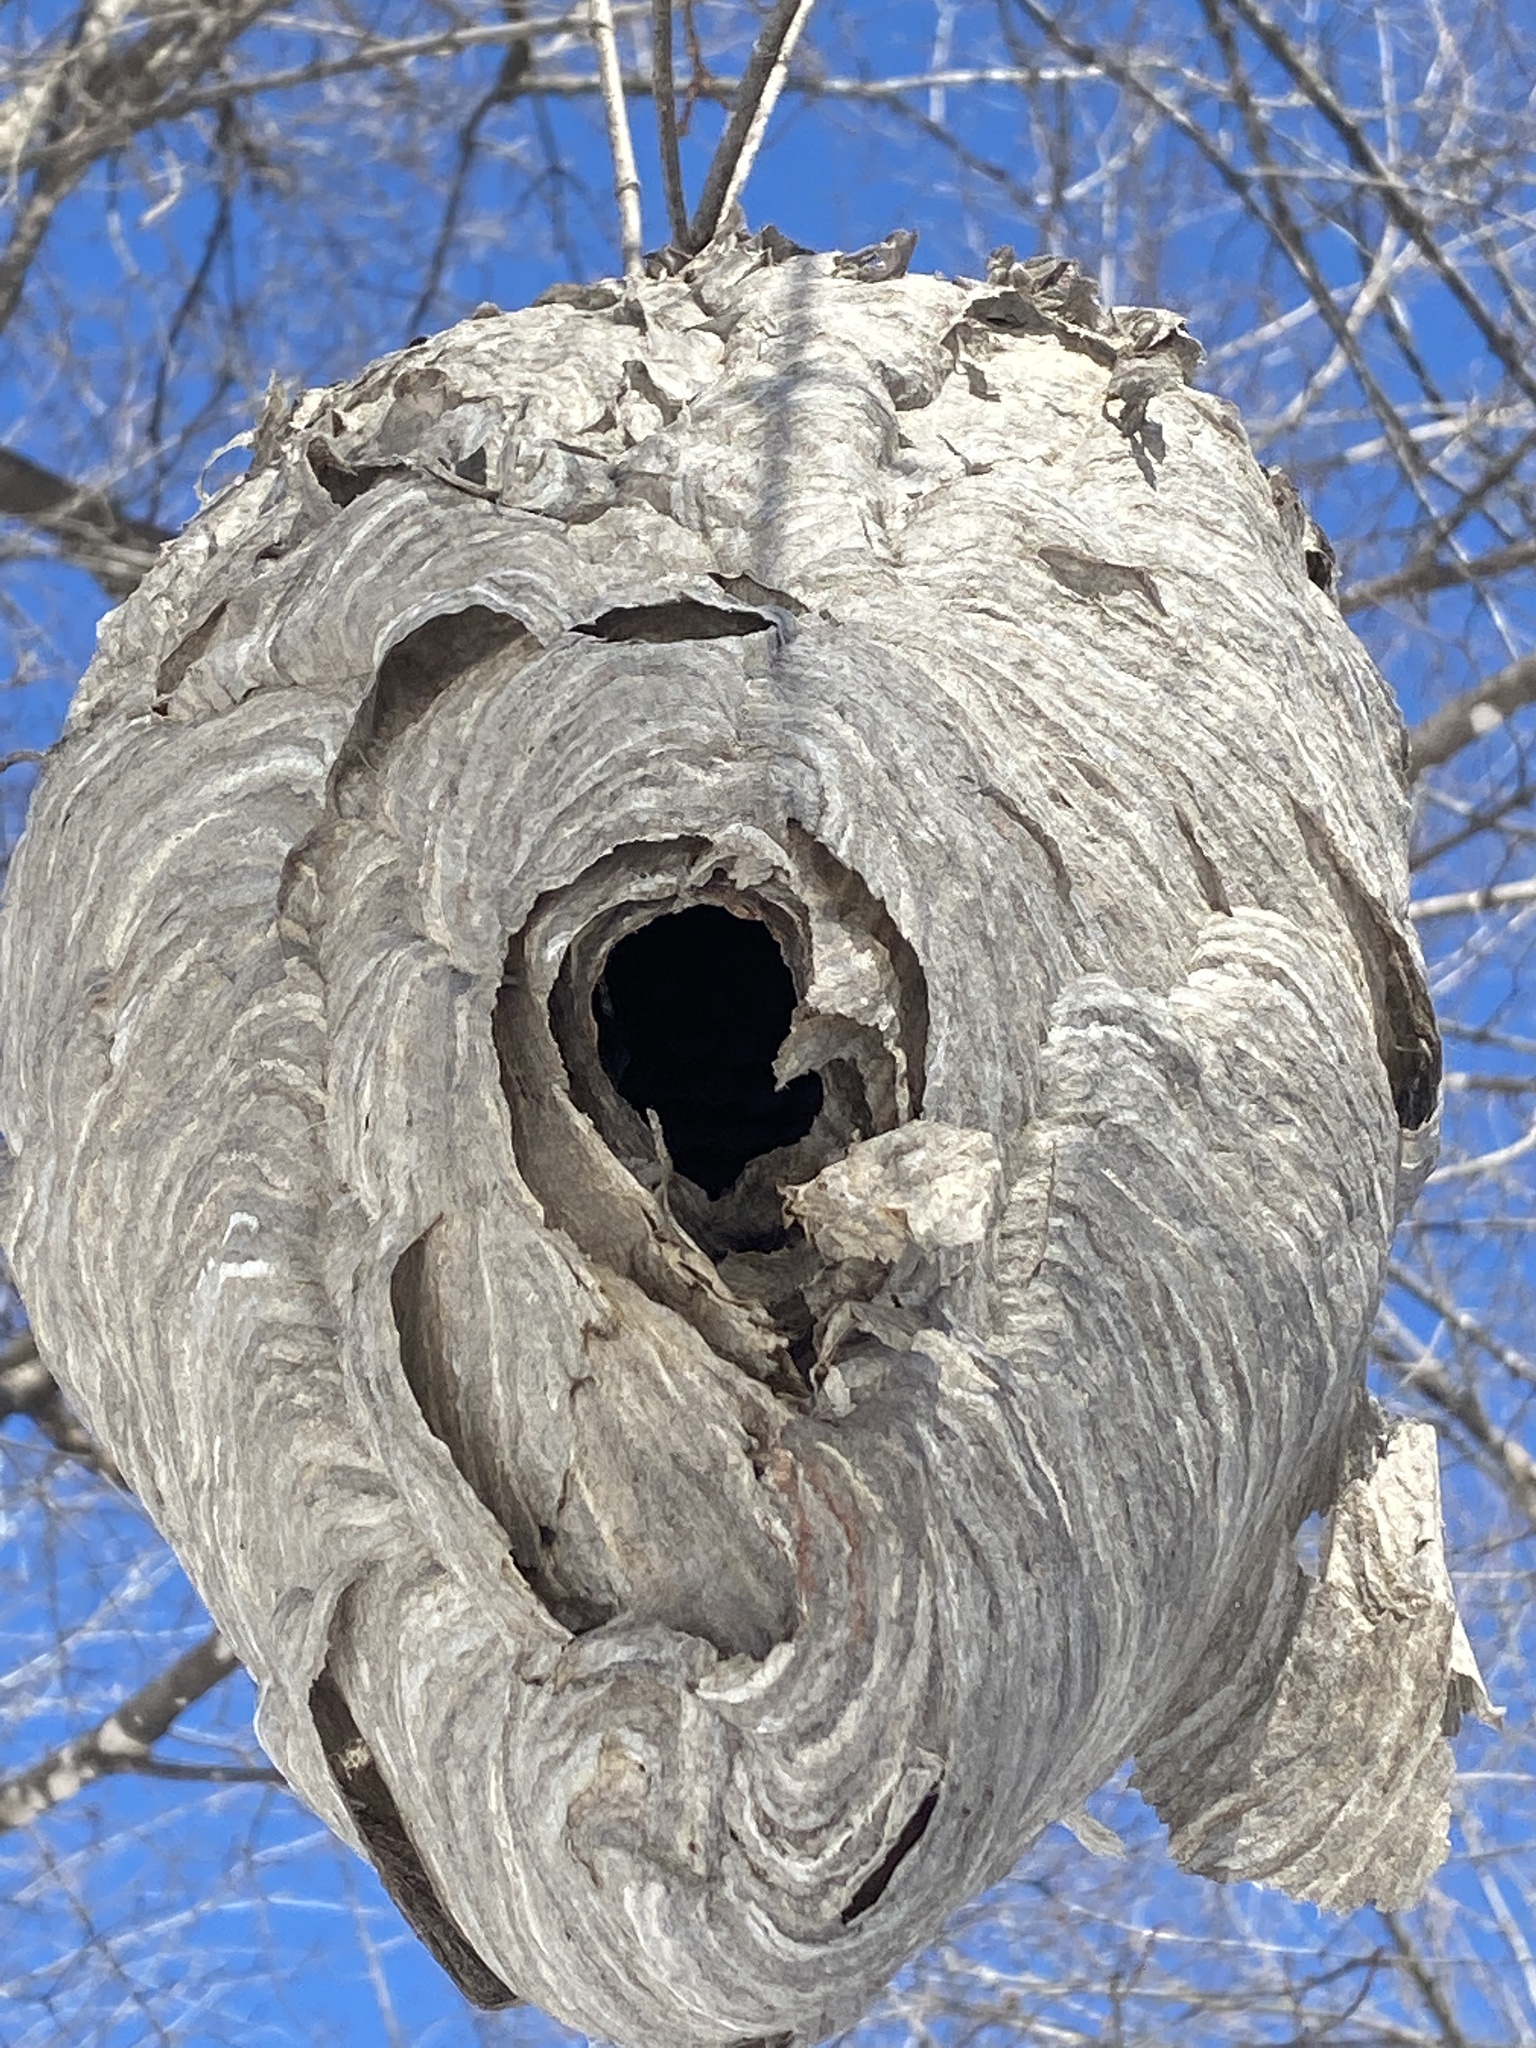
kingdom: Animalia
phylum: Arthropoda
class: Insecta
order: Hymenoptera
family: Vespidae
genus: Dolichovespula
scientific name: Dolichovespula maculata
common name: Bald-faced hornet
